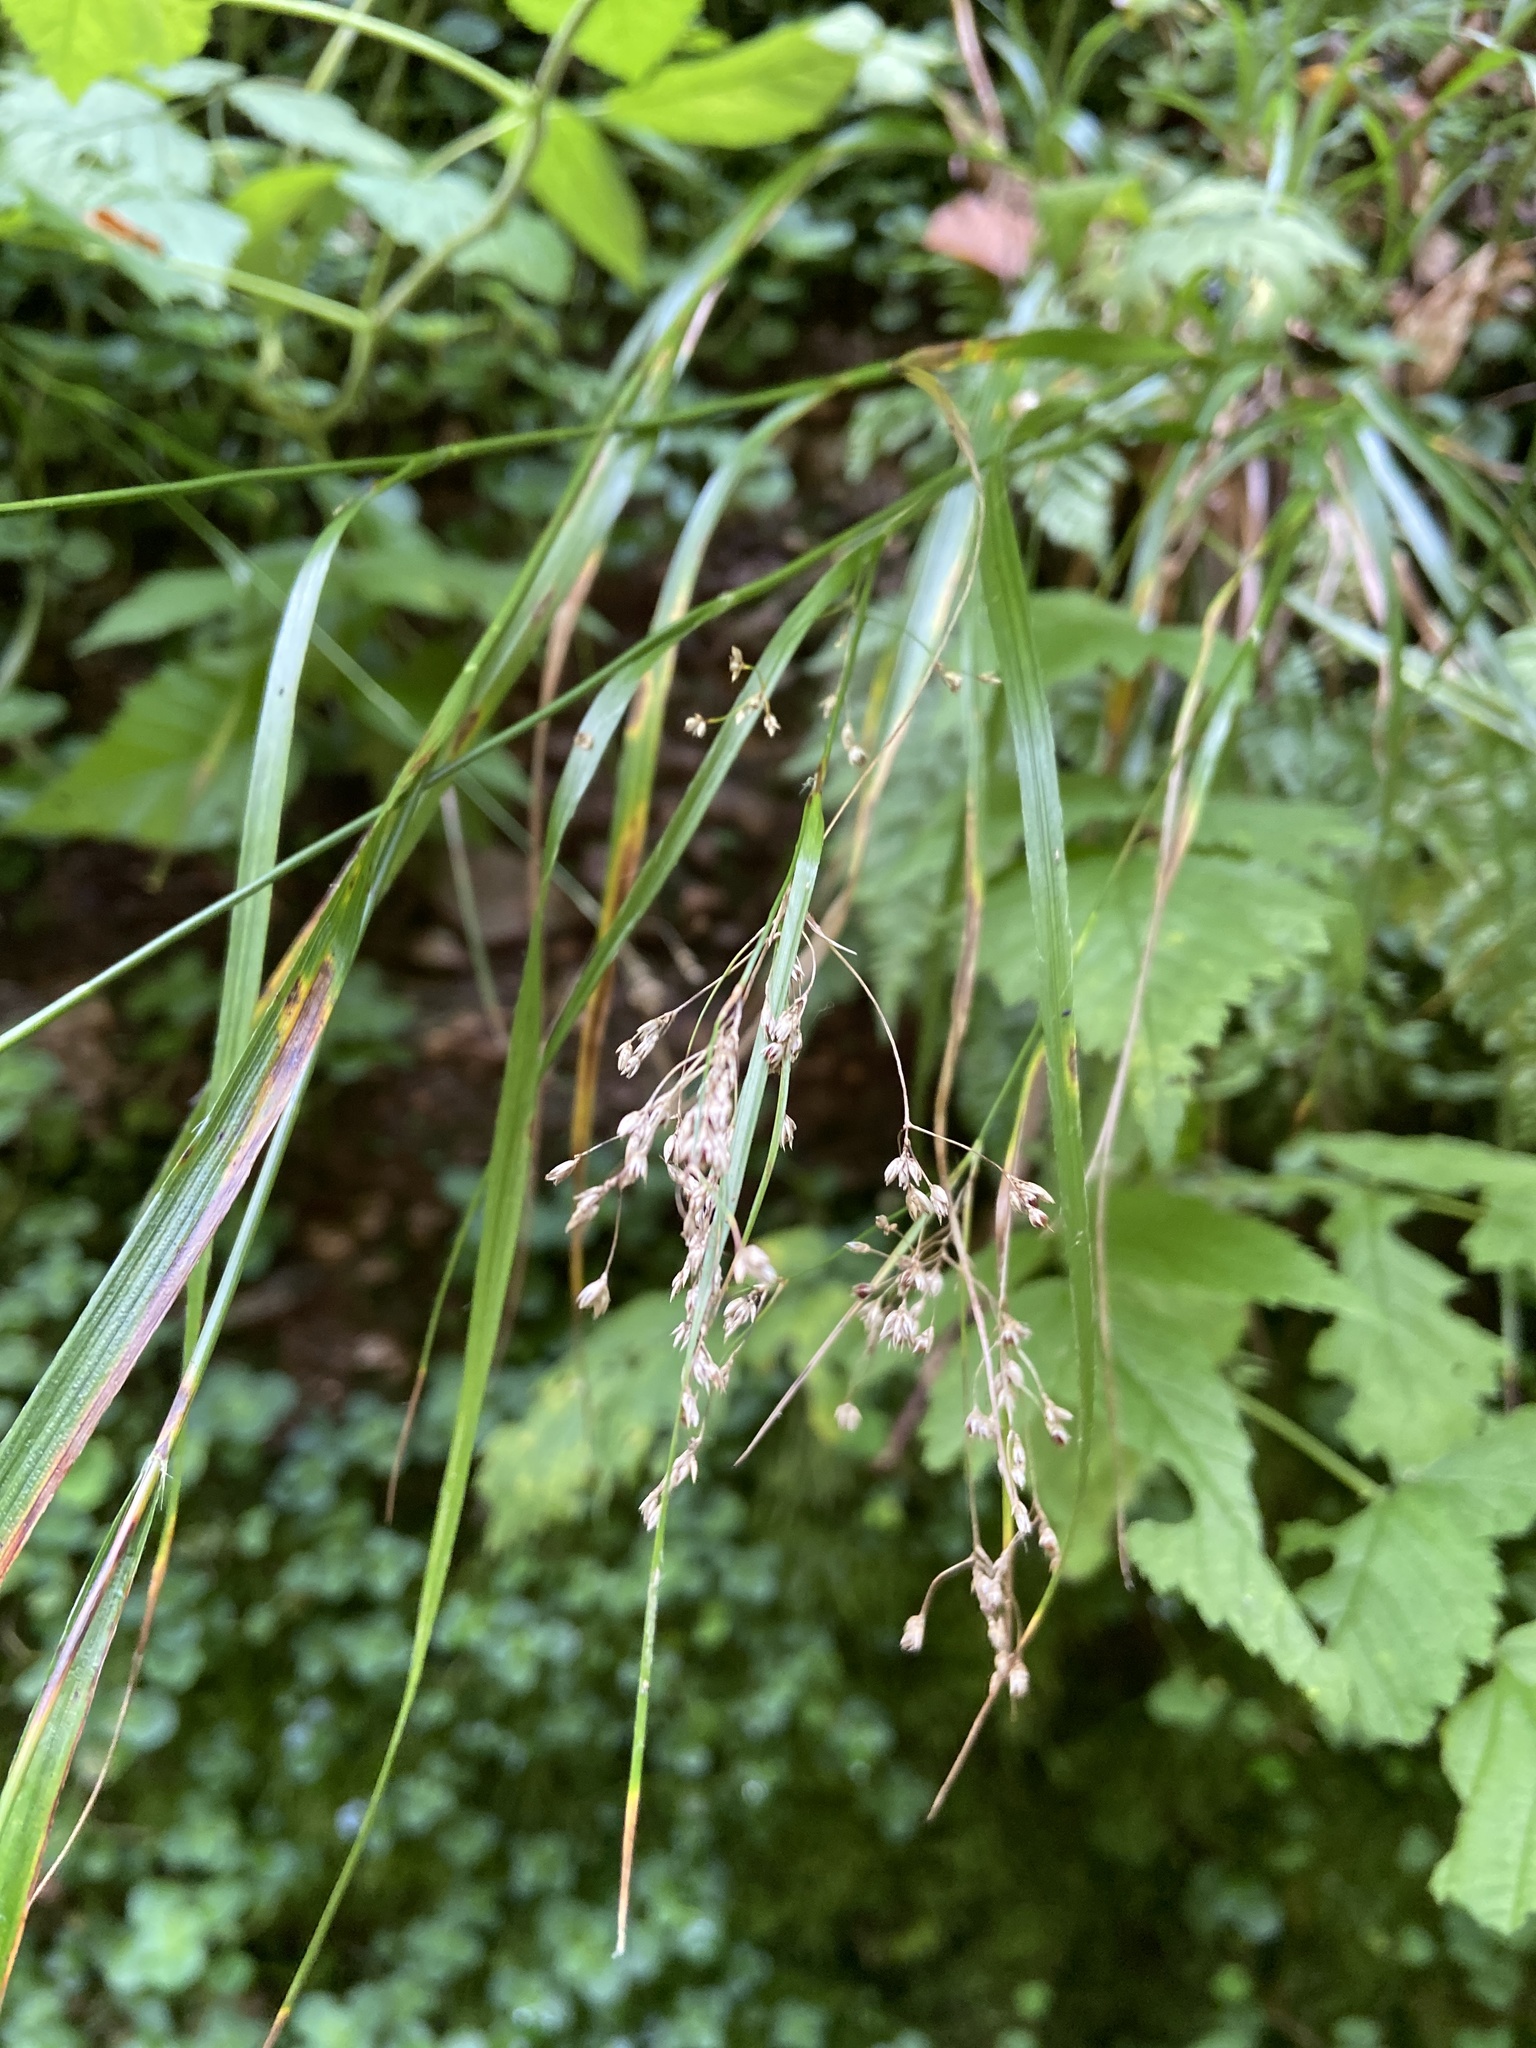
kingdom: Plantae
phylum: Tracheophyta
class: Liliopsida
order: Poales
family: Juncaceae
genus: Luzula
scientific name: Luzula luzuloides
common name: White wood-rush
